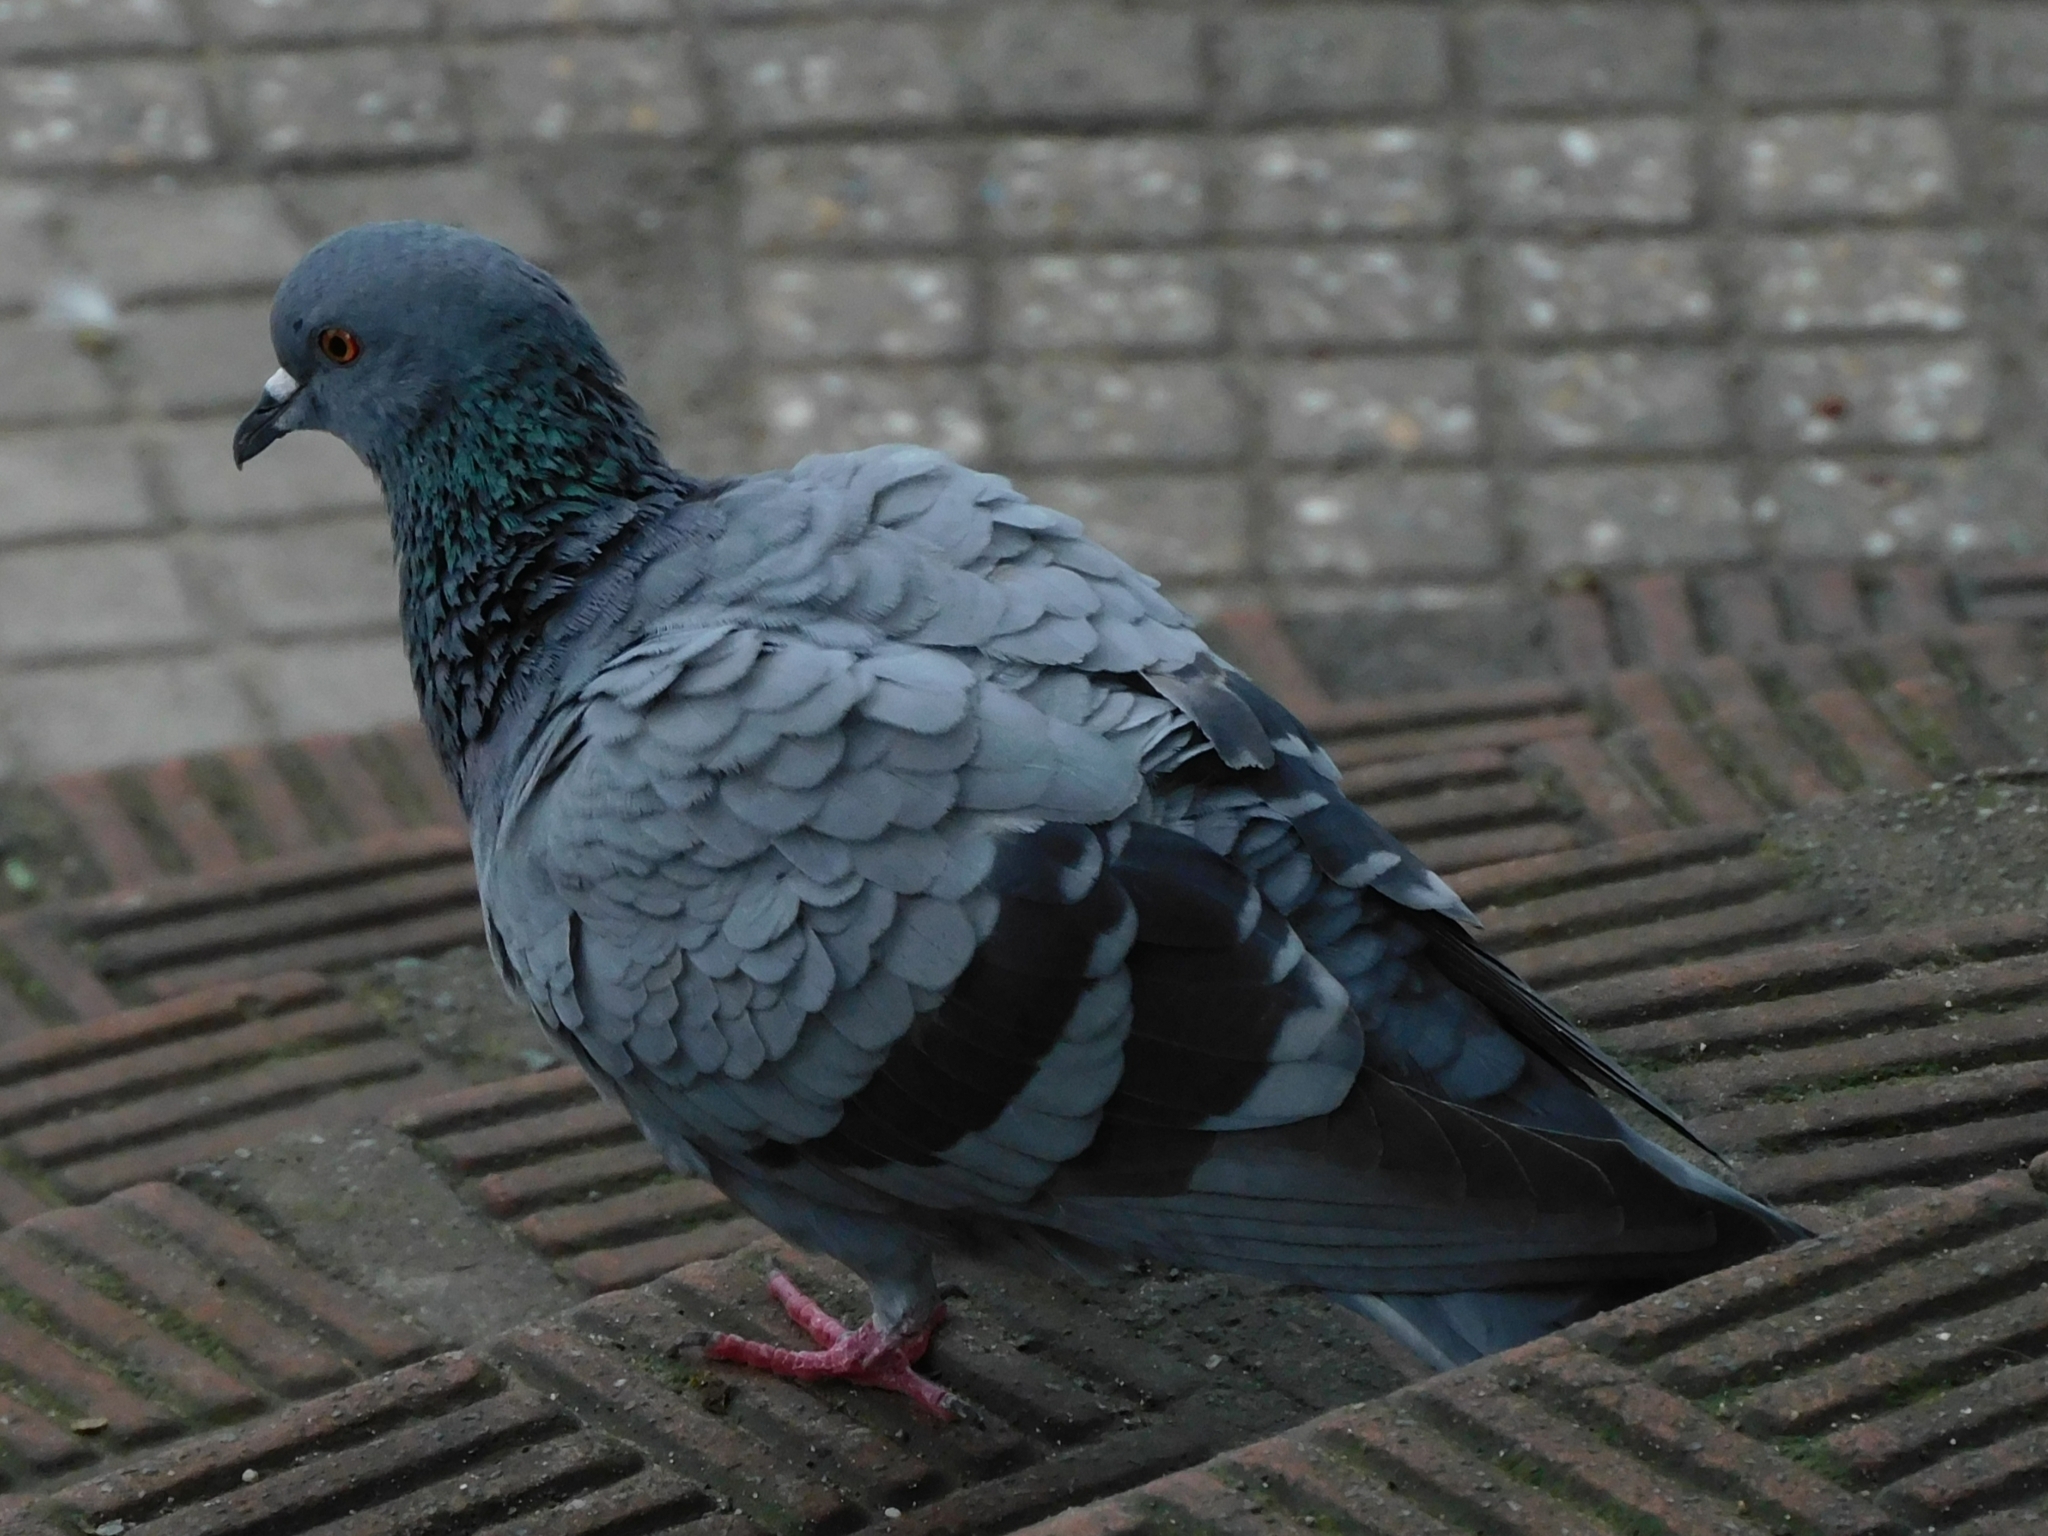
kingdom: Animalia
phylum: Chordata
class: Aves
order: Columbiformes
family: Columbidae
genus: Columba
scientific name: Columba livia
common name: Rock pigeon
